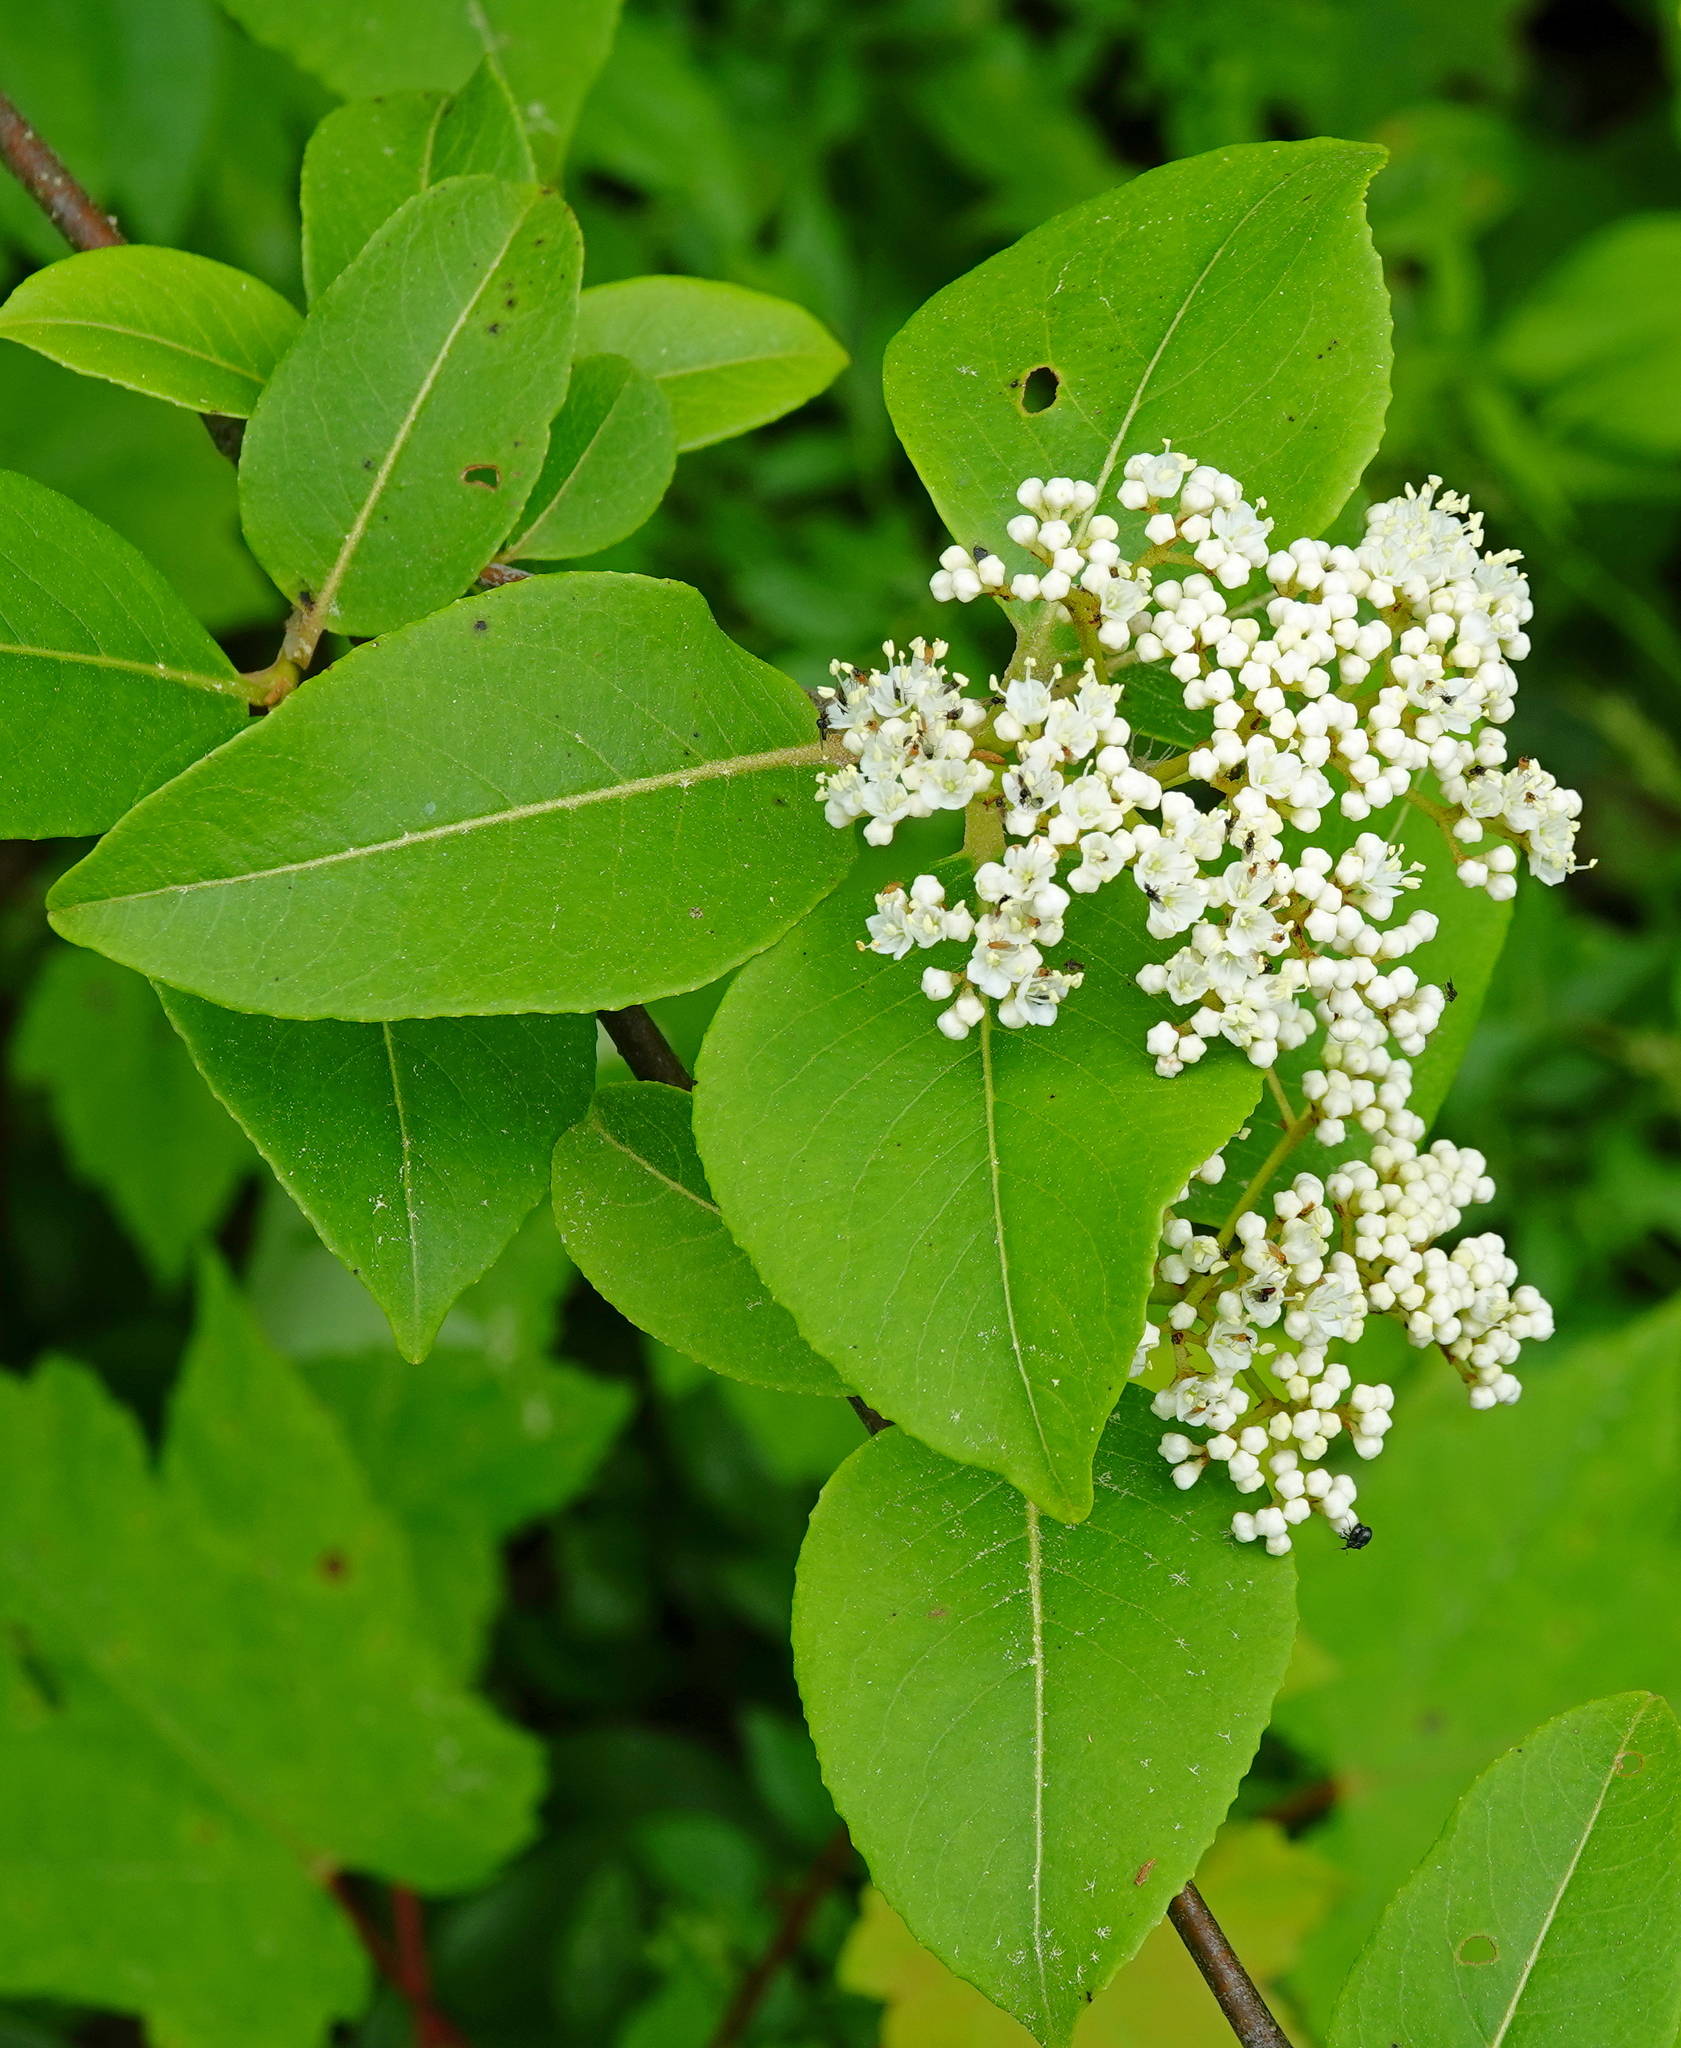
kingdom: Plantae
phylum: Tracheophyta
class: Magnoliopsida
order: Dipsacales
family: Viburnaceae
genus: Viburnum
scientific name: Viburnum cassinoides
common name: Swamp haw
